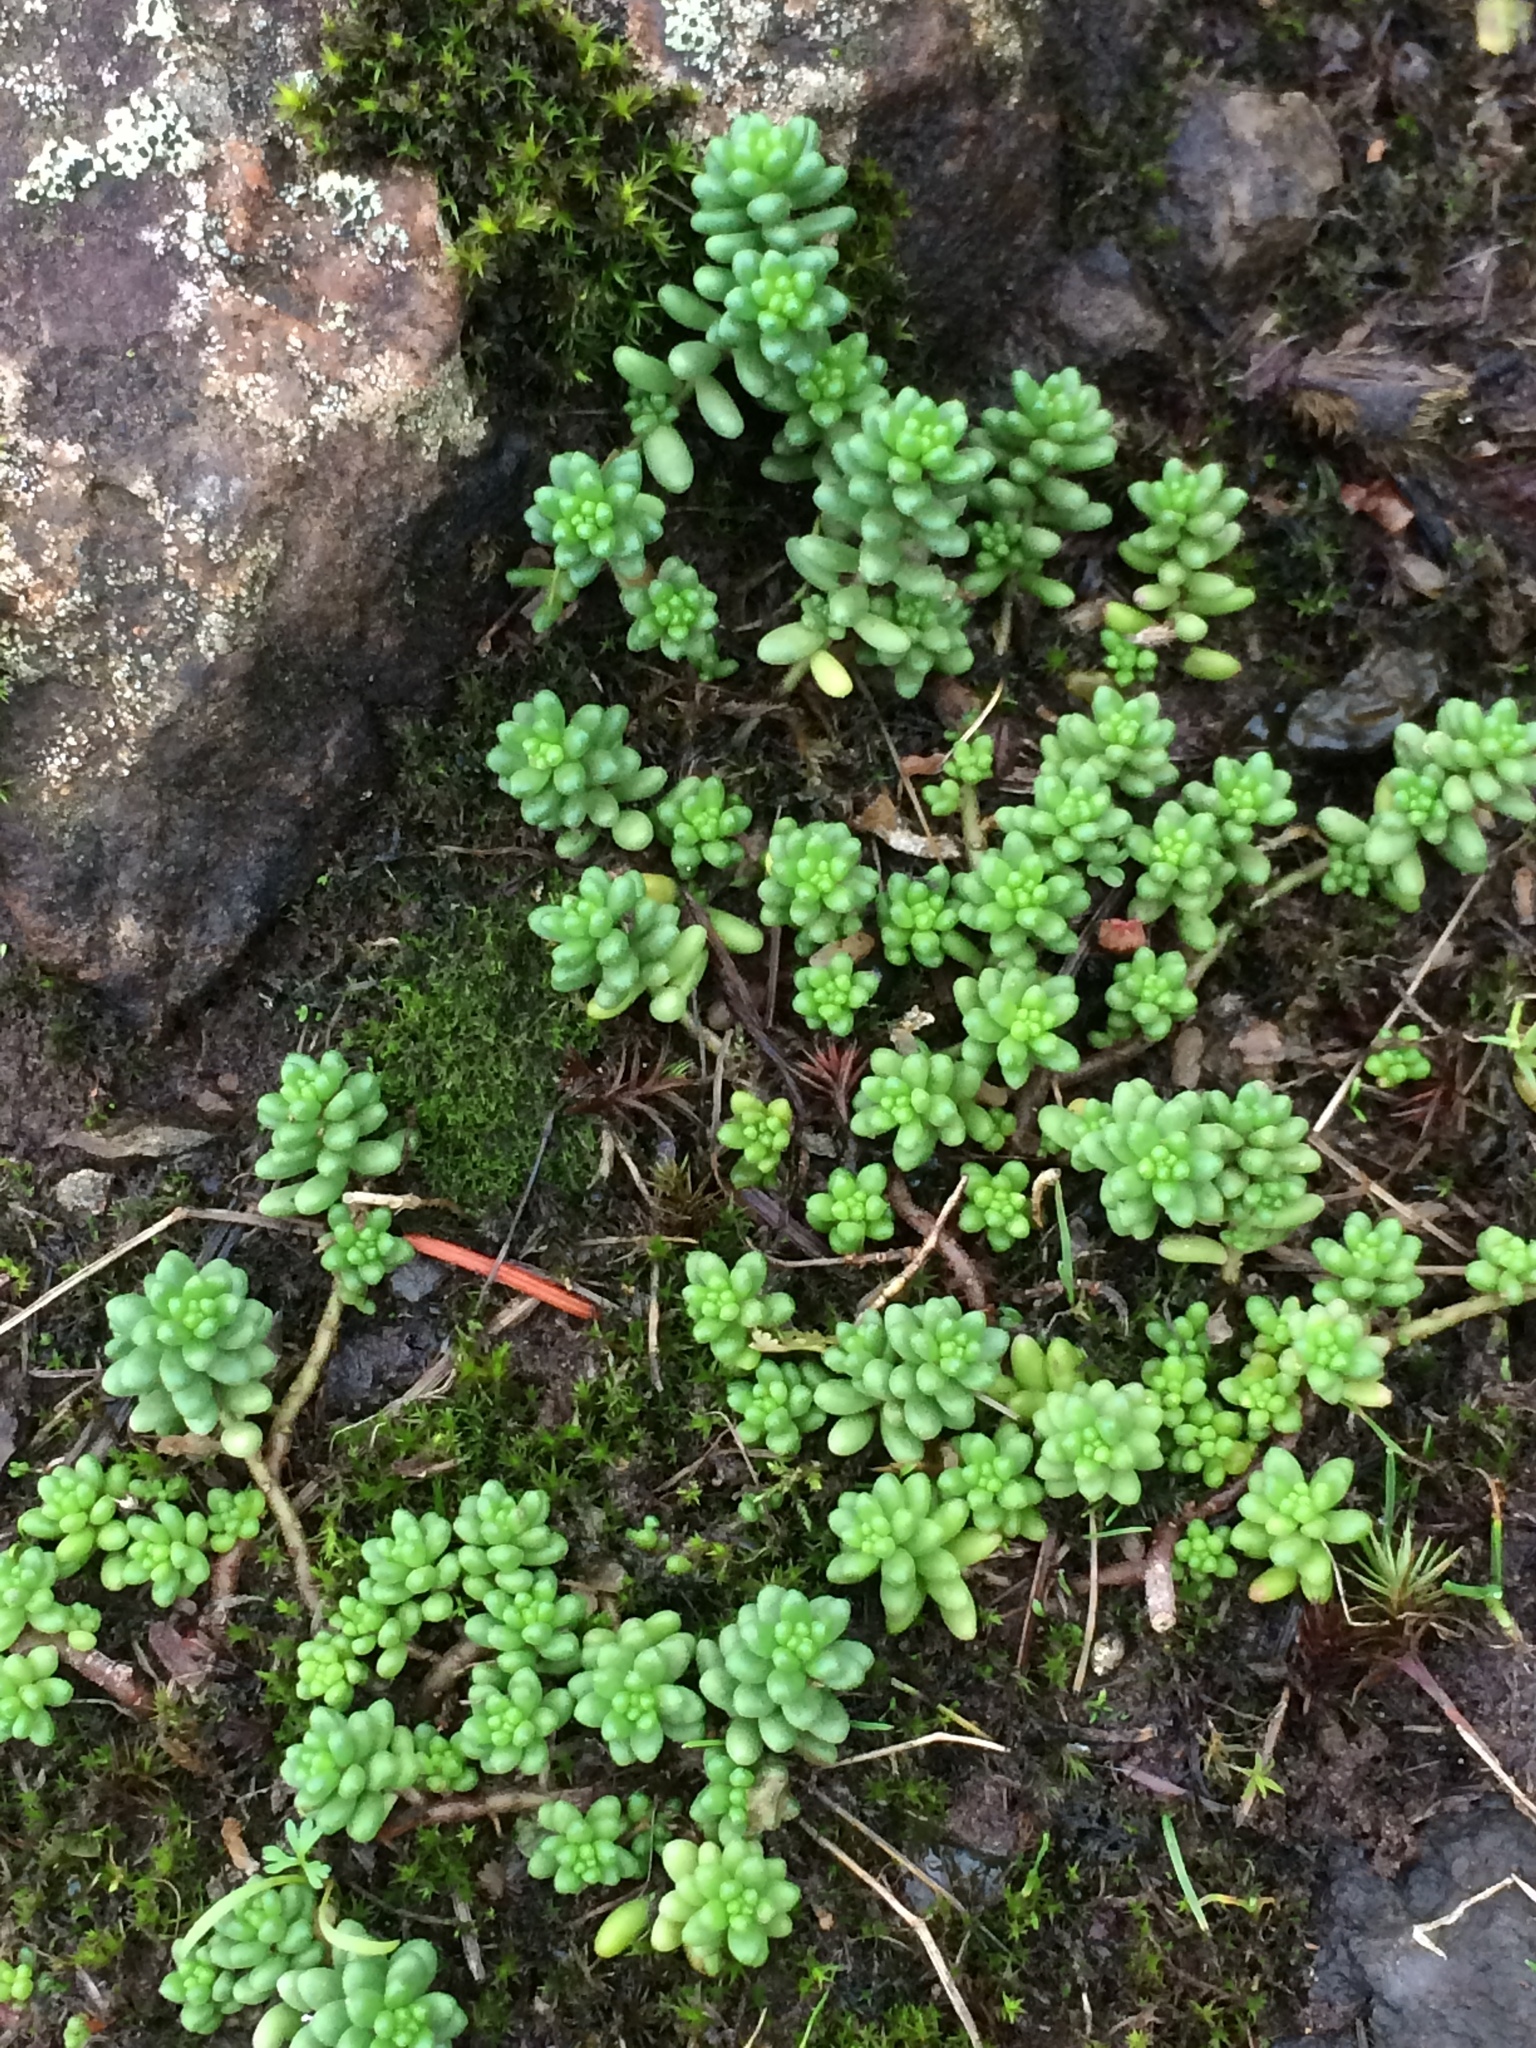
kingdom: Plantae
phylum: Tracheophyta
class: Magnoliopsida
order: Saxifragales
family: Crassulaceae
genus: Sedum
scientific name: Sedum album
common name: White stonecrop
